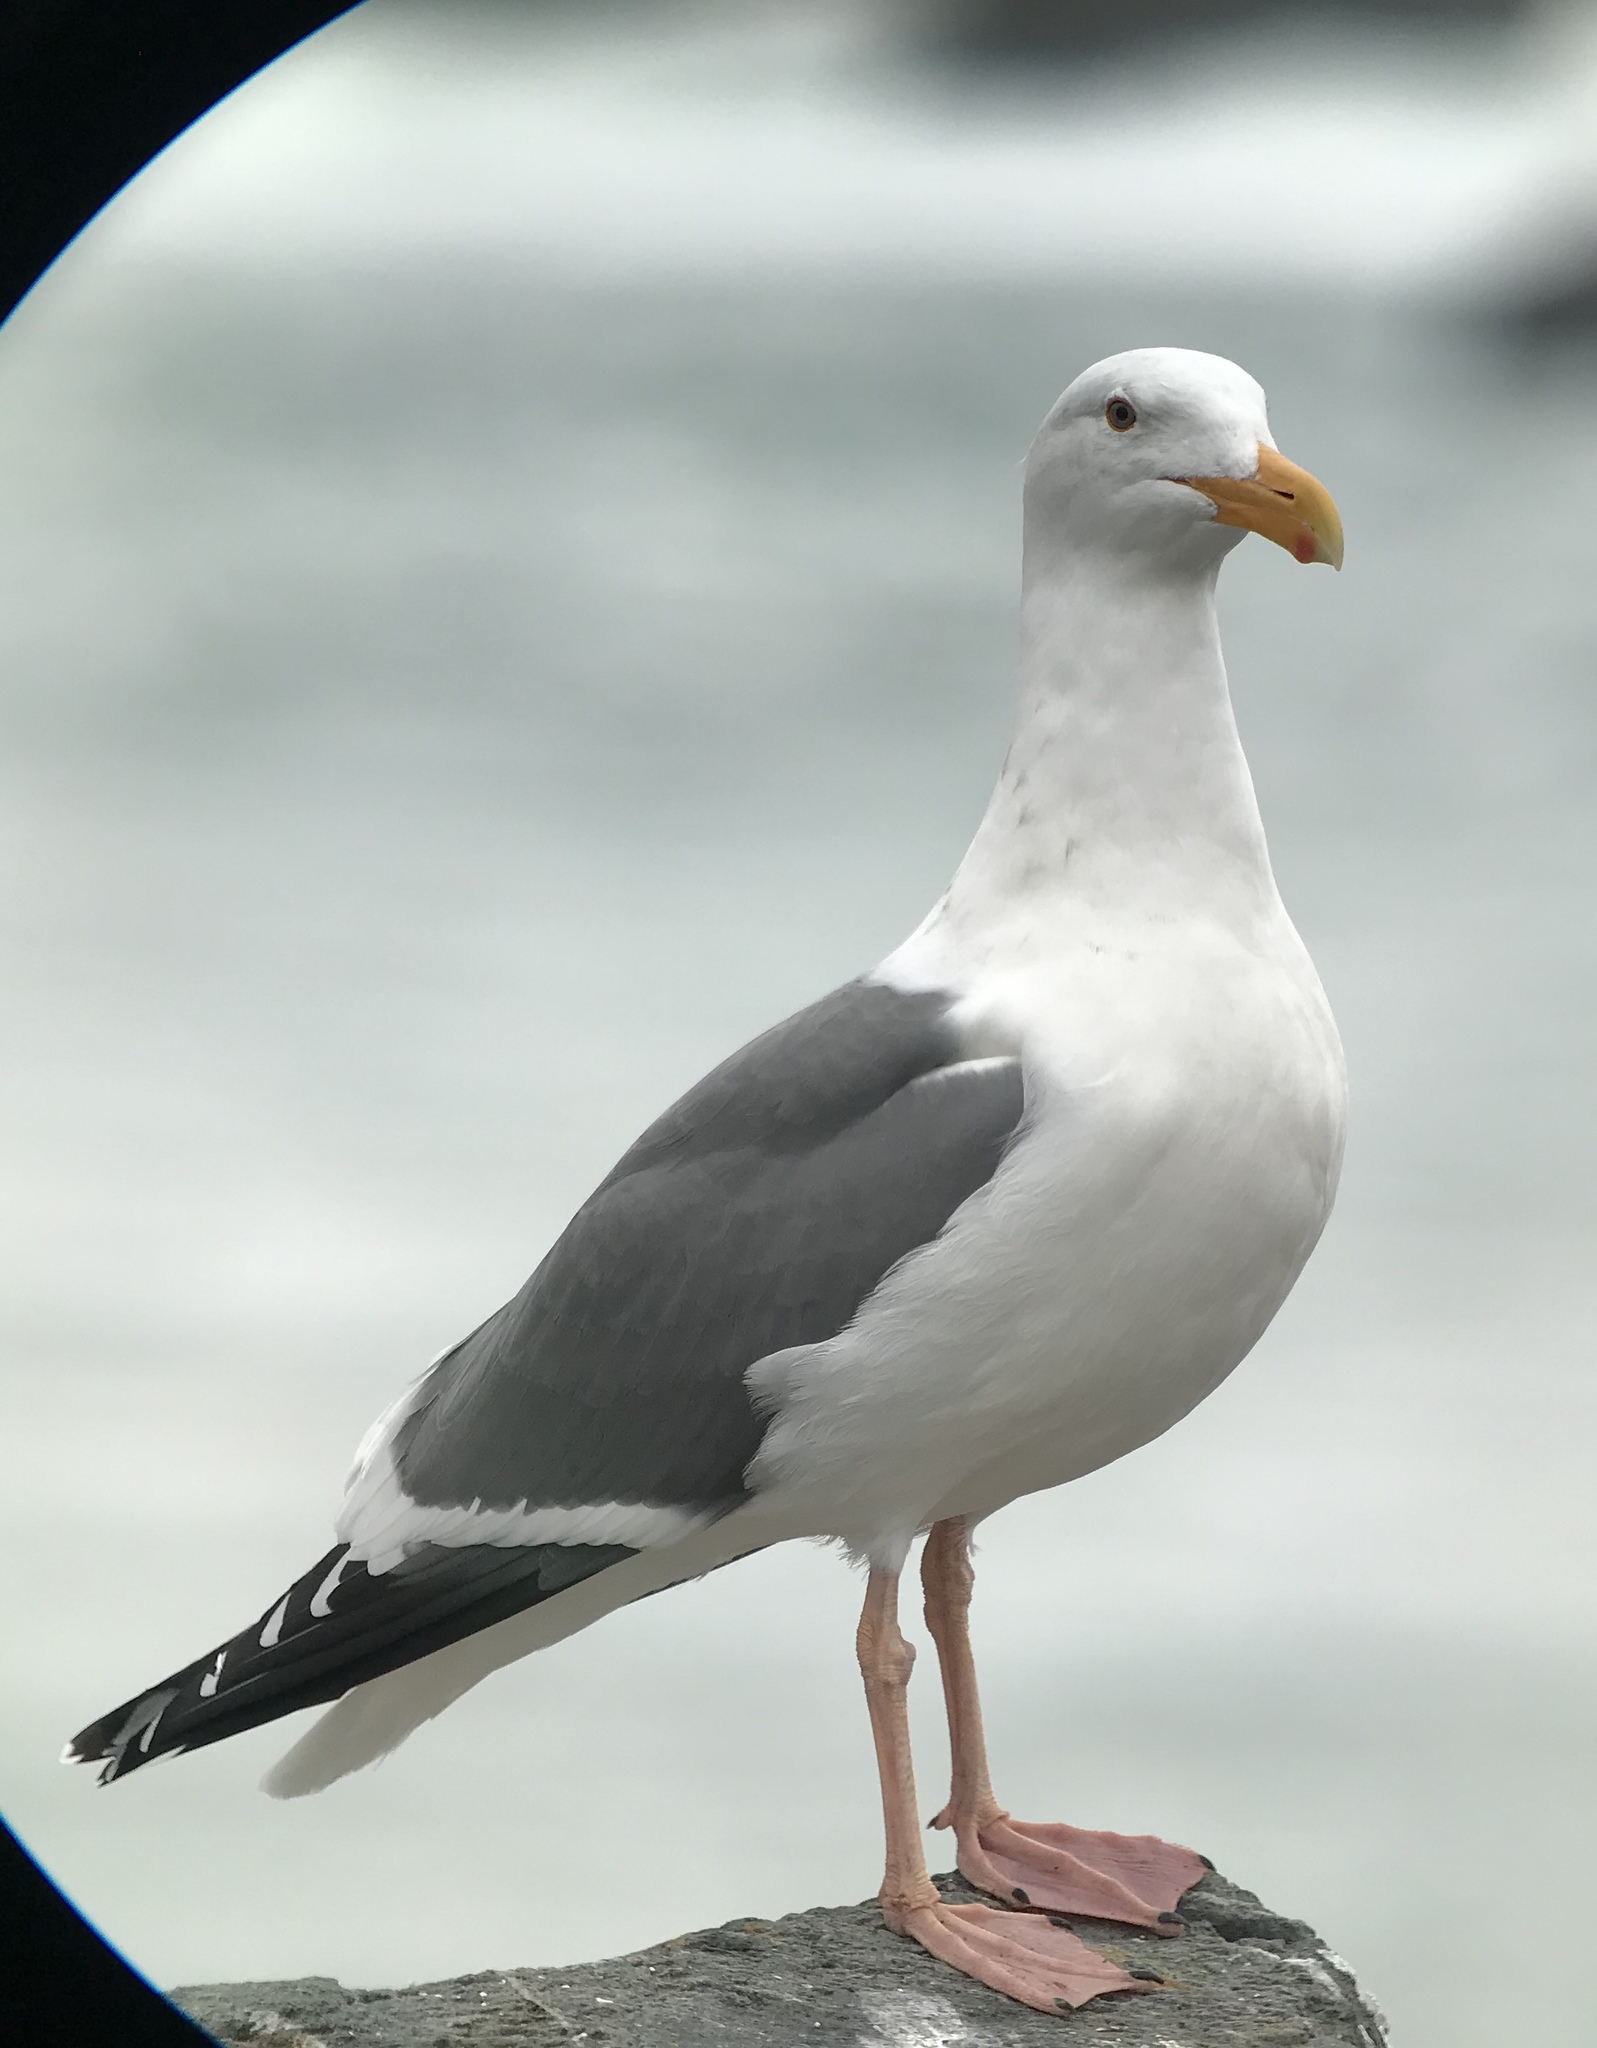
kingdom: Animalia
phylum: Chordata
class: Aves
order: Charadriiformes
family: Laridae
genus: Larus
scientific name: Larus occidentalis
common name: Western gull
